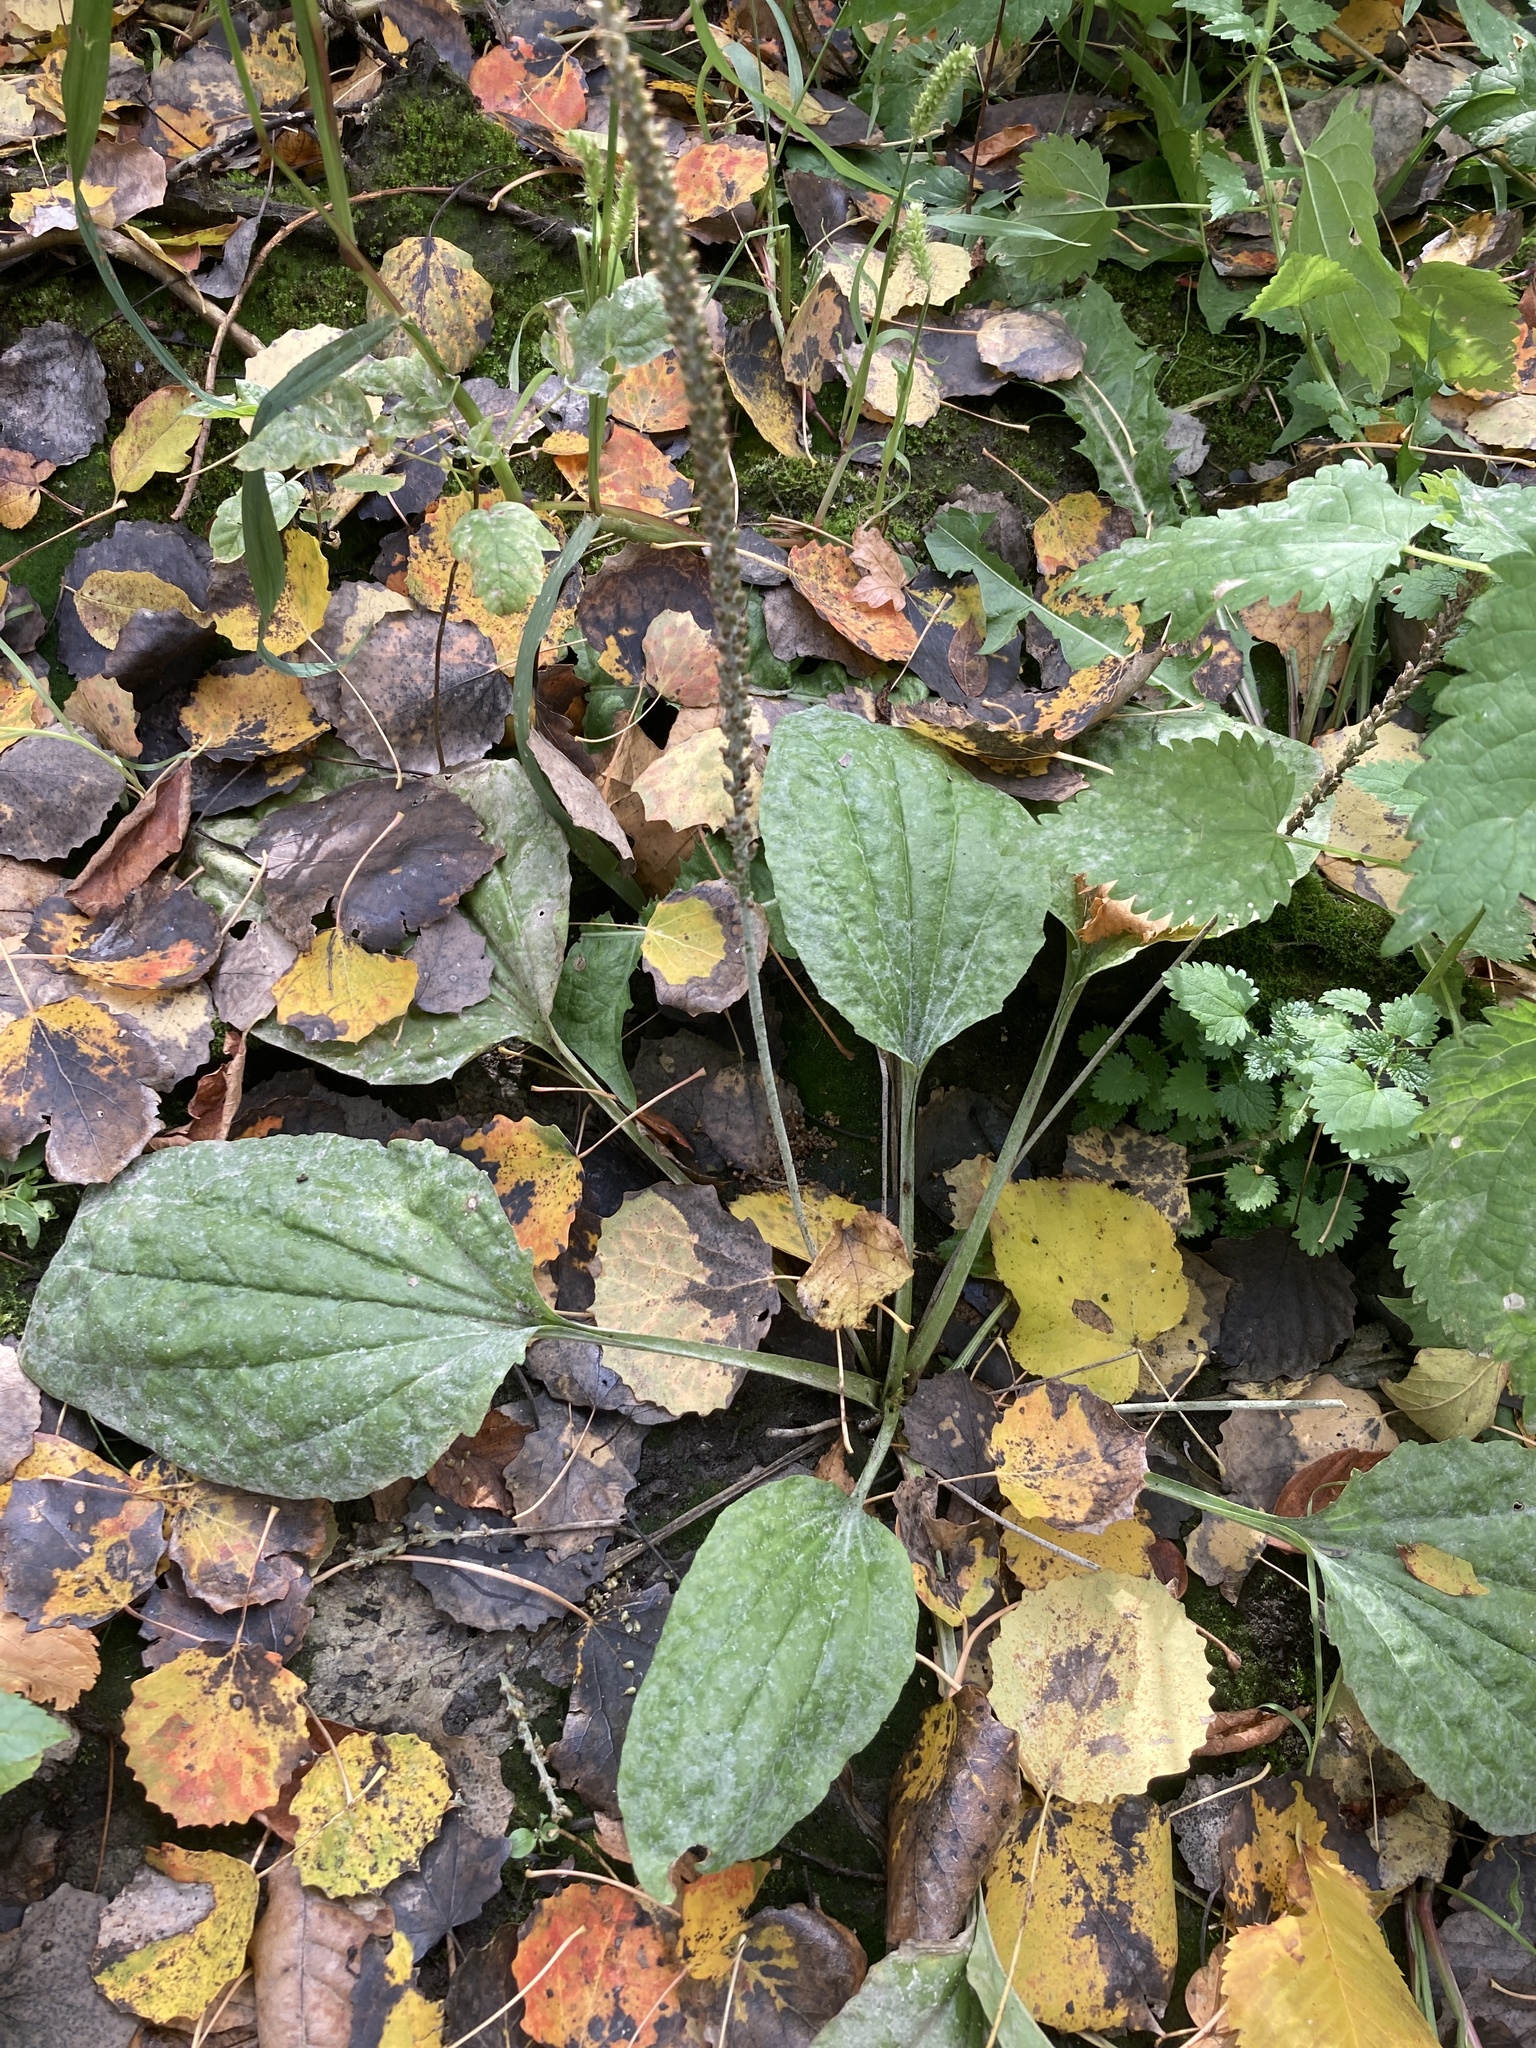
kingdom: Plantae
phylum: Tracheophyta
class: Magnoliopsida
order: Lamiales
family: Plantaginaceae
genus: Plantago
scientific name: Plantago major
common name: Common plantain
